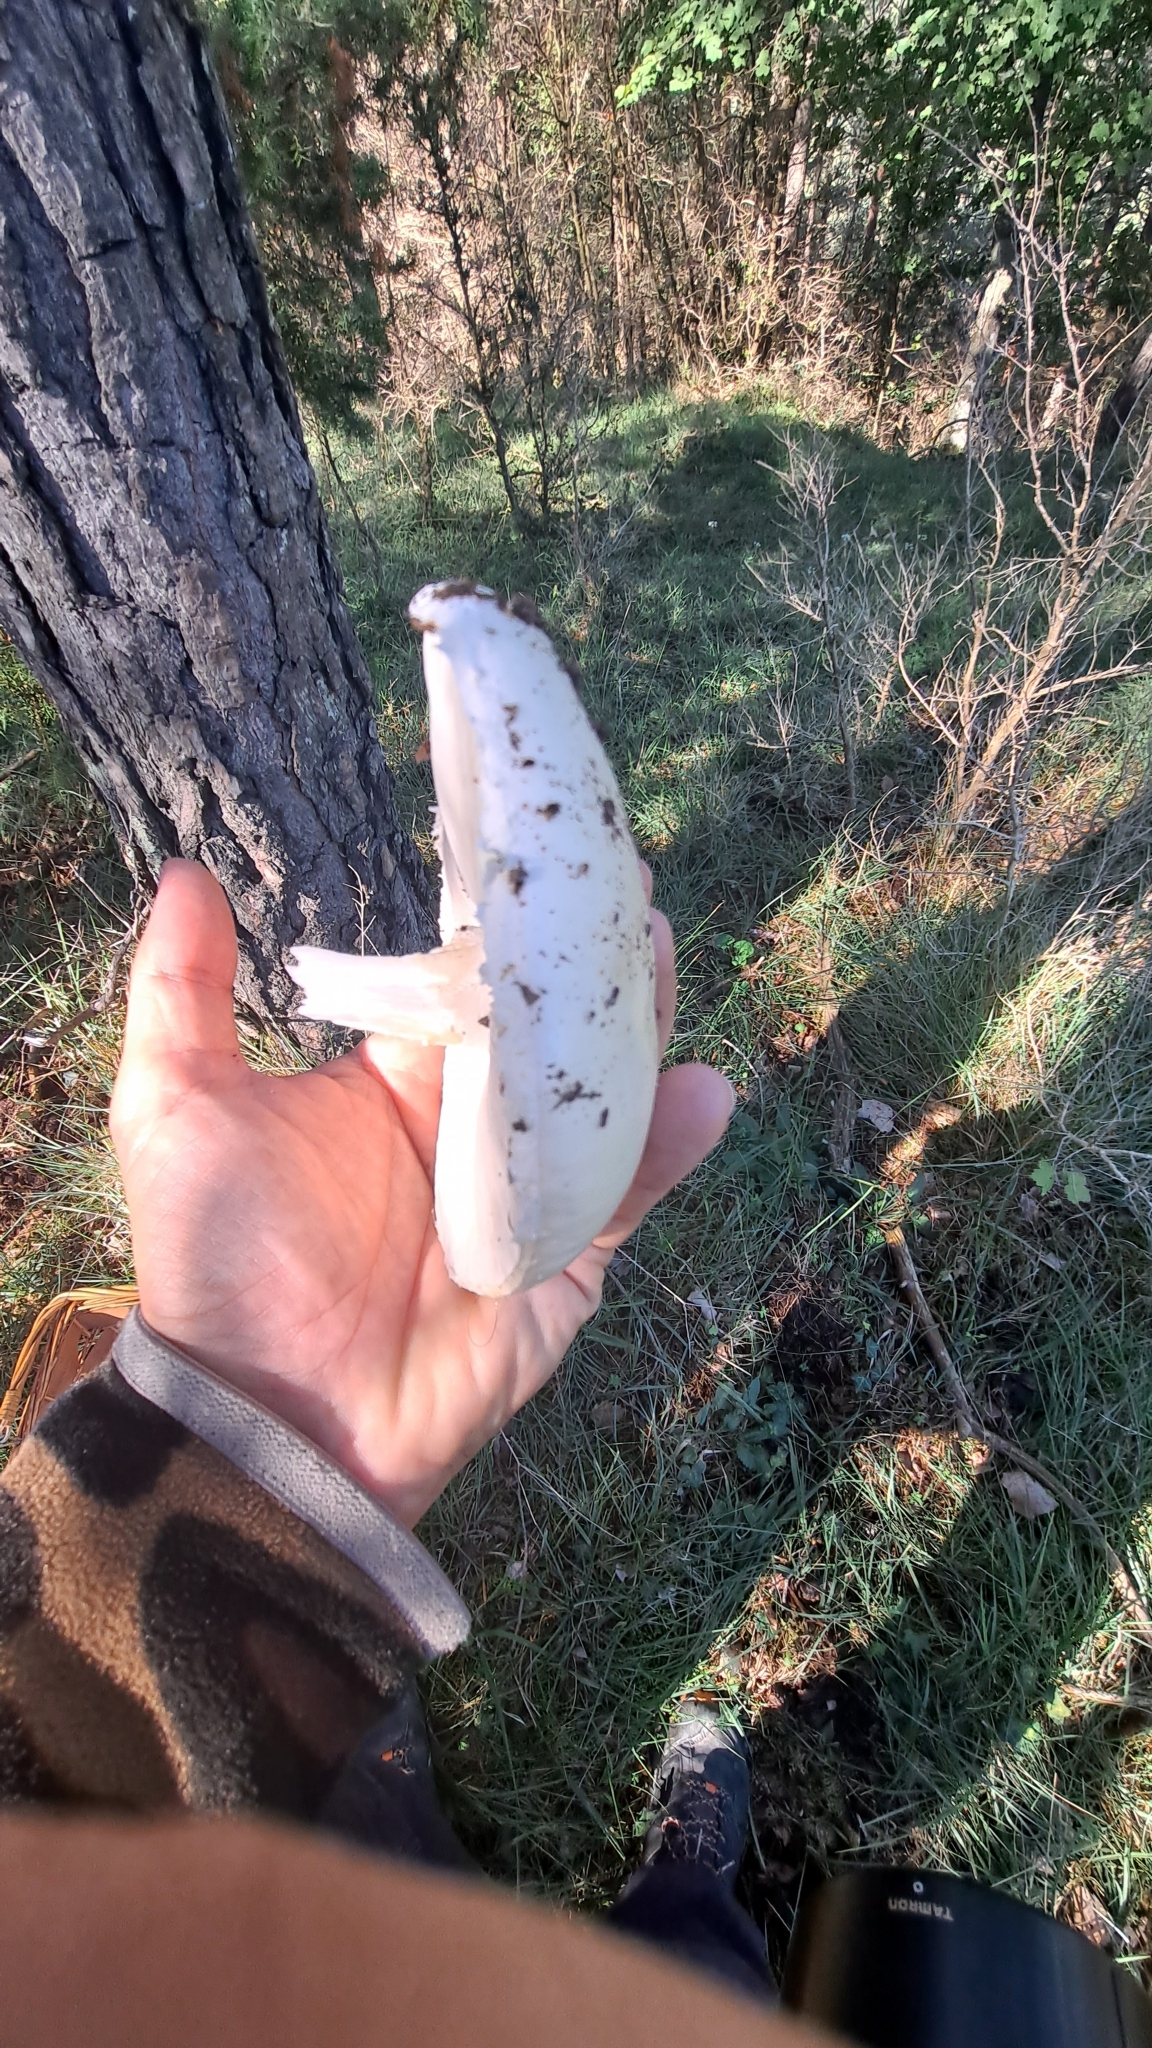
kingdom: Fungi
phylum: Basidiomycota
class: Agaricomycetes
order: Agaricales
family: Amanitaceae
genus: Amanita
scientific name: Amanita ovoidea
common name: Bearded amanita
